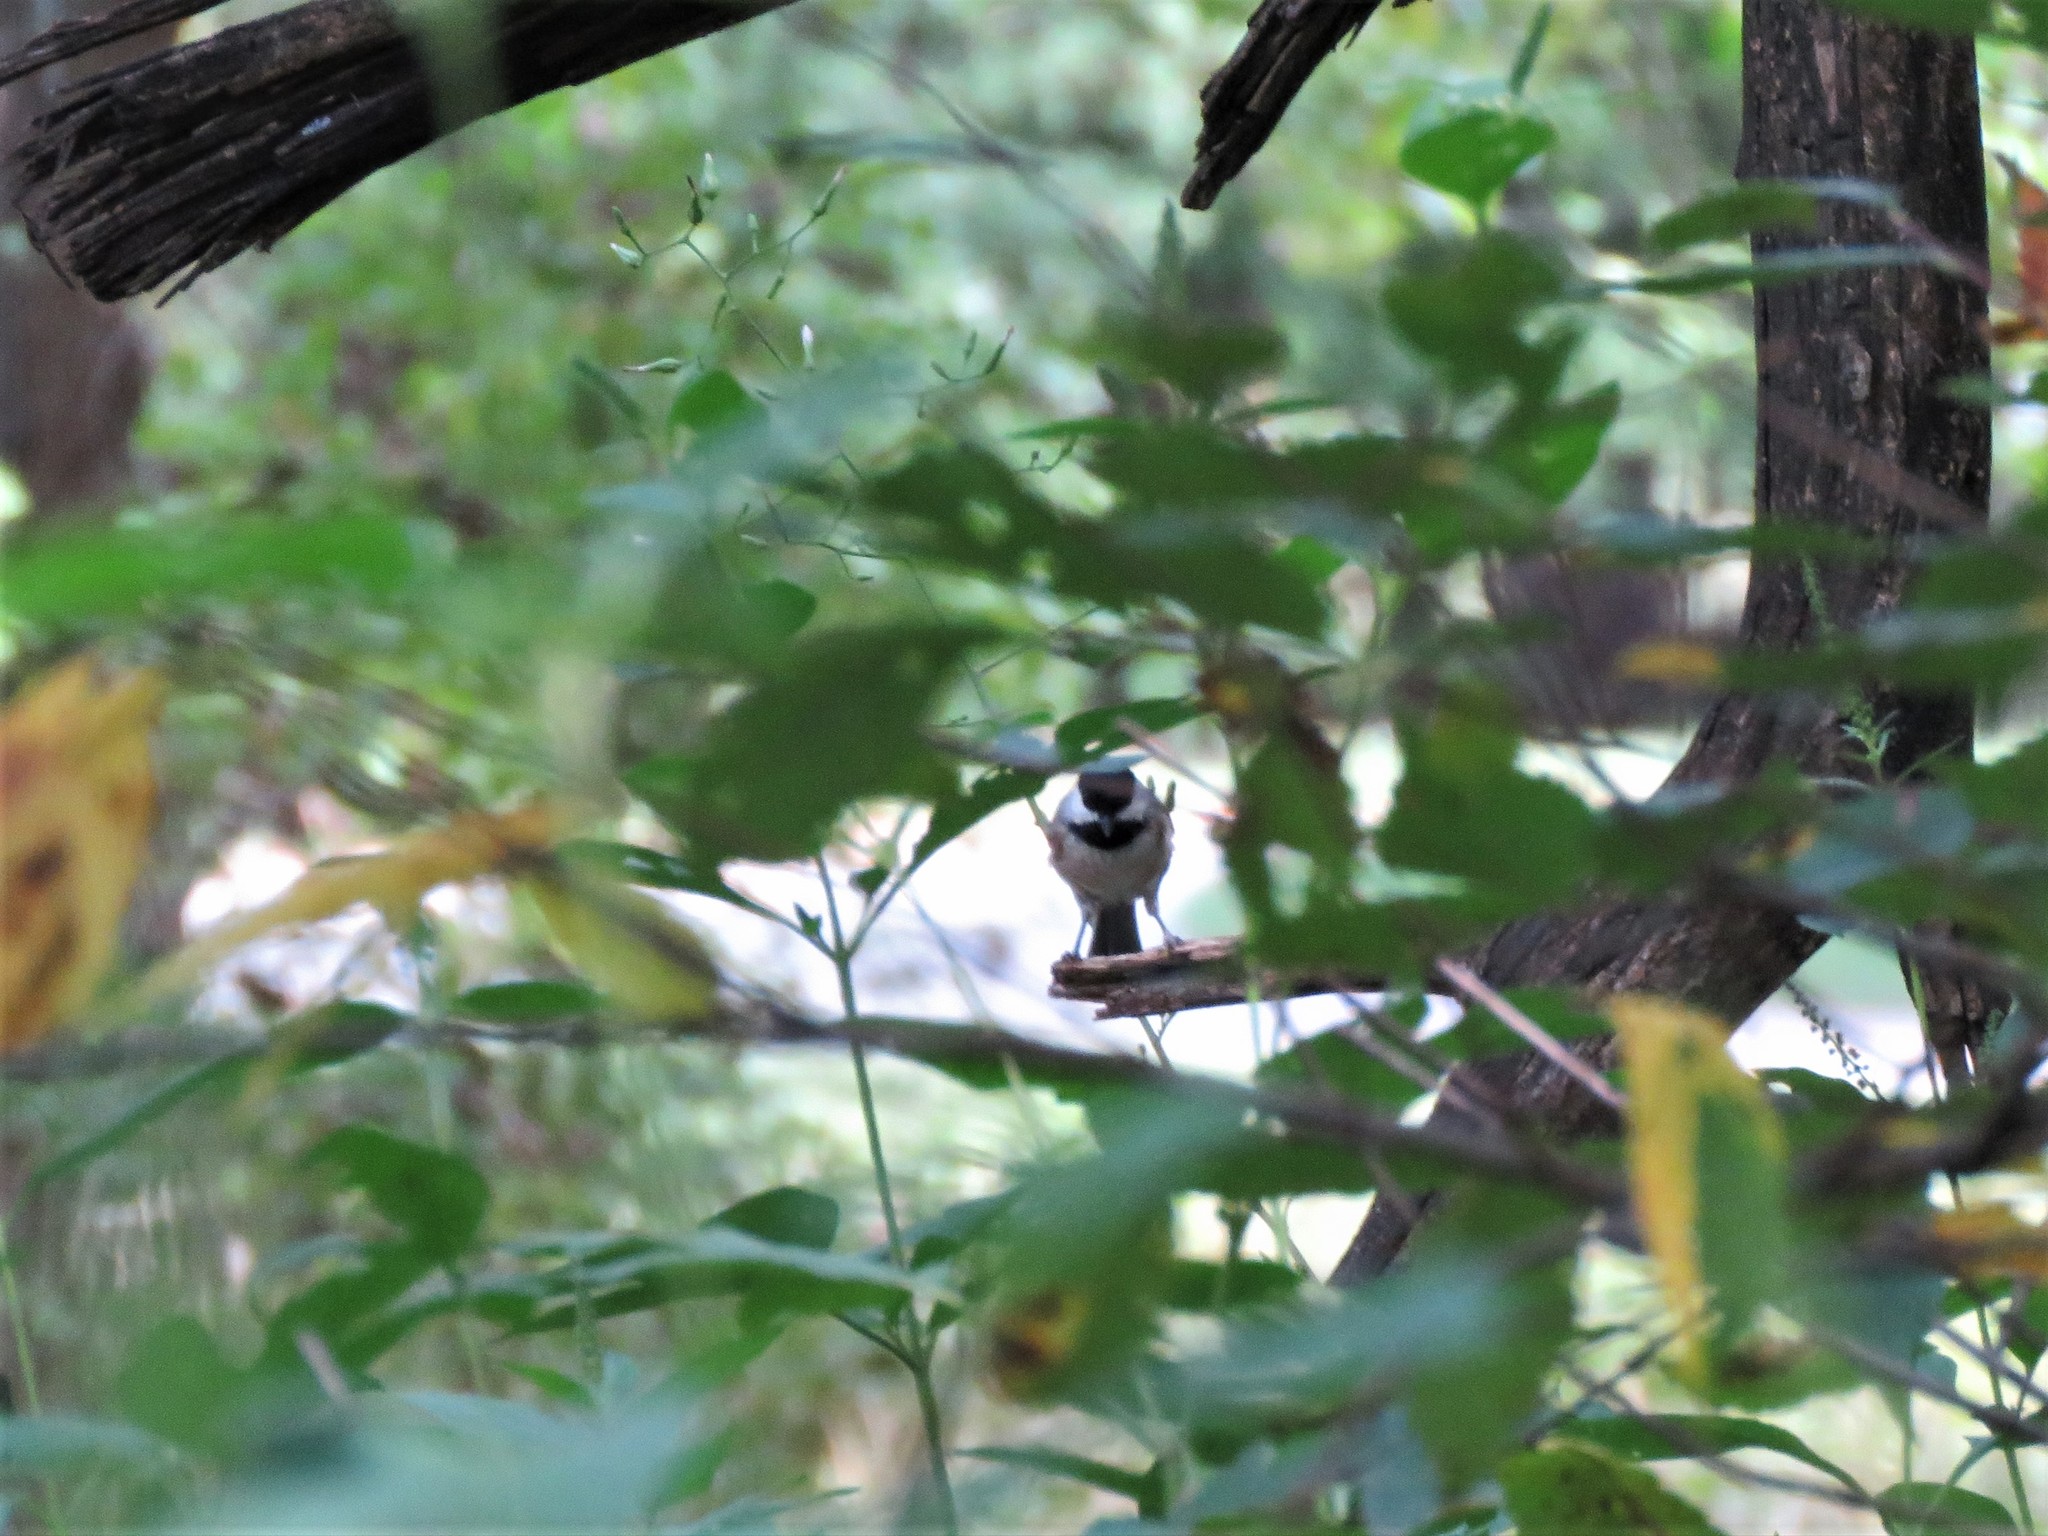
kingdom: Animalia
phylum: Chordata
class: Aves
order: Passeriformes
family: Paridae
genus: Poecile
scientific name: Poecile carolinensis
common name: Carolina chickadee
